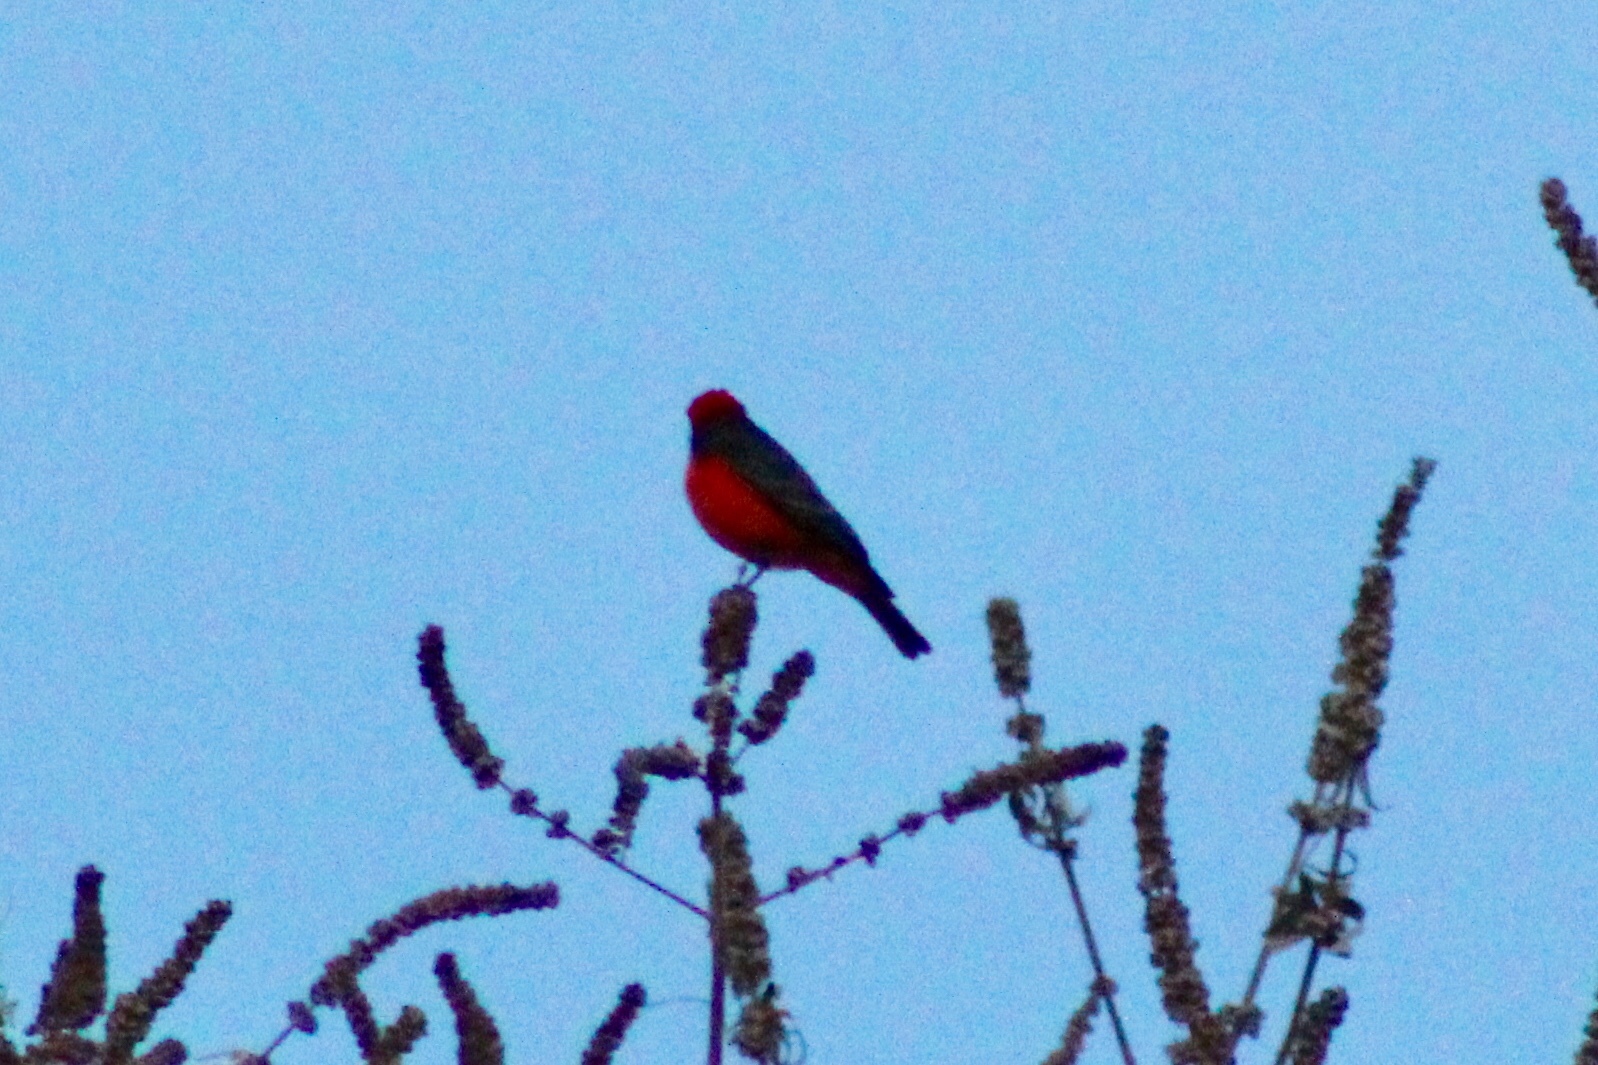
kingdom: Animalia
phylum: Chordata
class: Aves
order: Passeriformes
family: Tyrannidae
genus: Pyrocephalus
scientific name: Pyrocephalus rubinus
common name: Vermilion flycatcher
